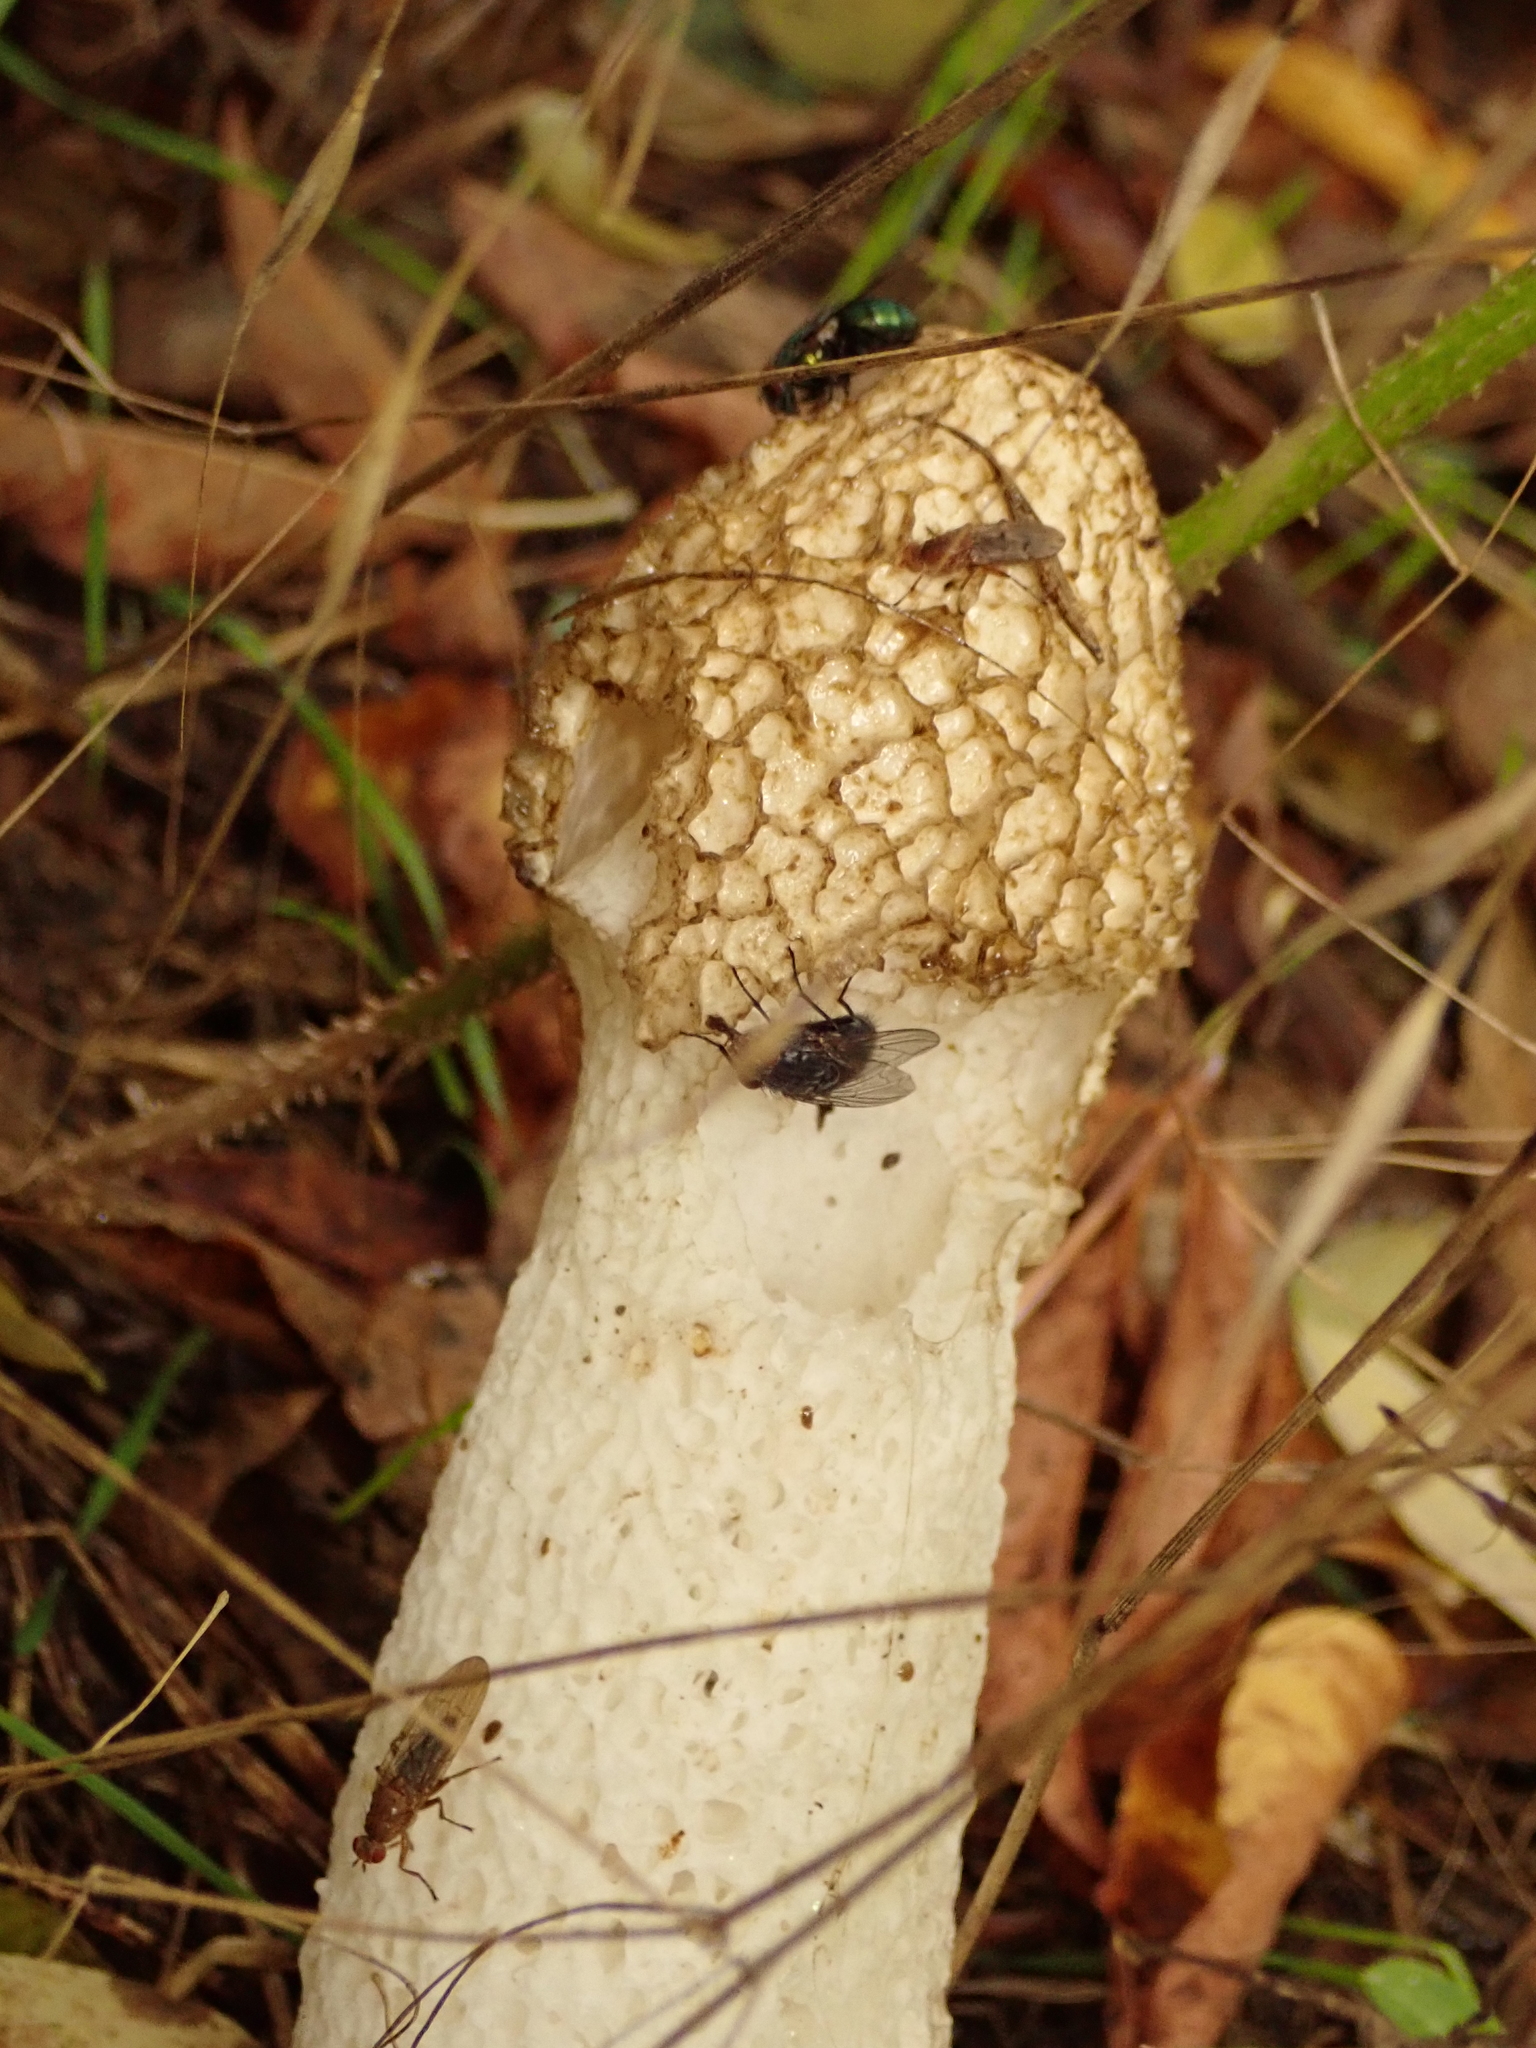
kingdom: Fungi
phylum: Basidiomycota
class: Agaricomycetes
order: Phallales
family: Phallaceae
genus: Phallus
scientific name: Phallus impudicus
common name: Common stinkhorn
